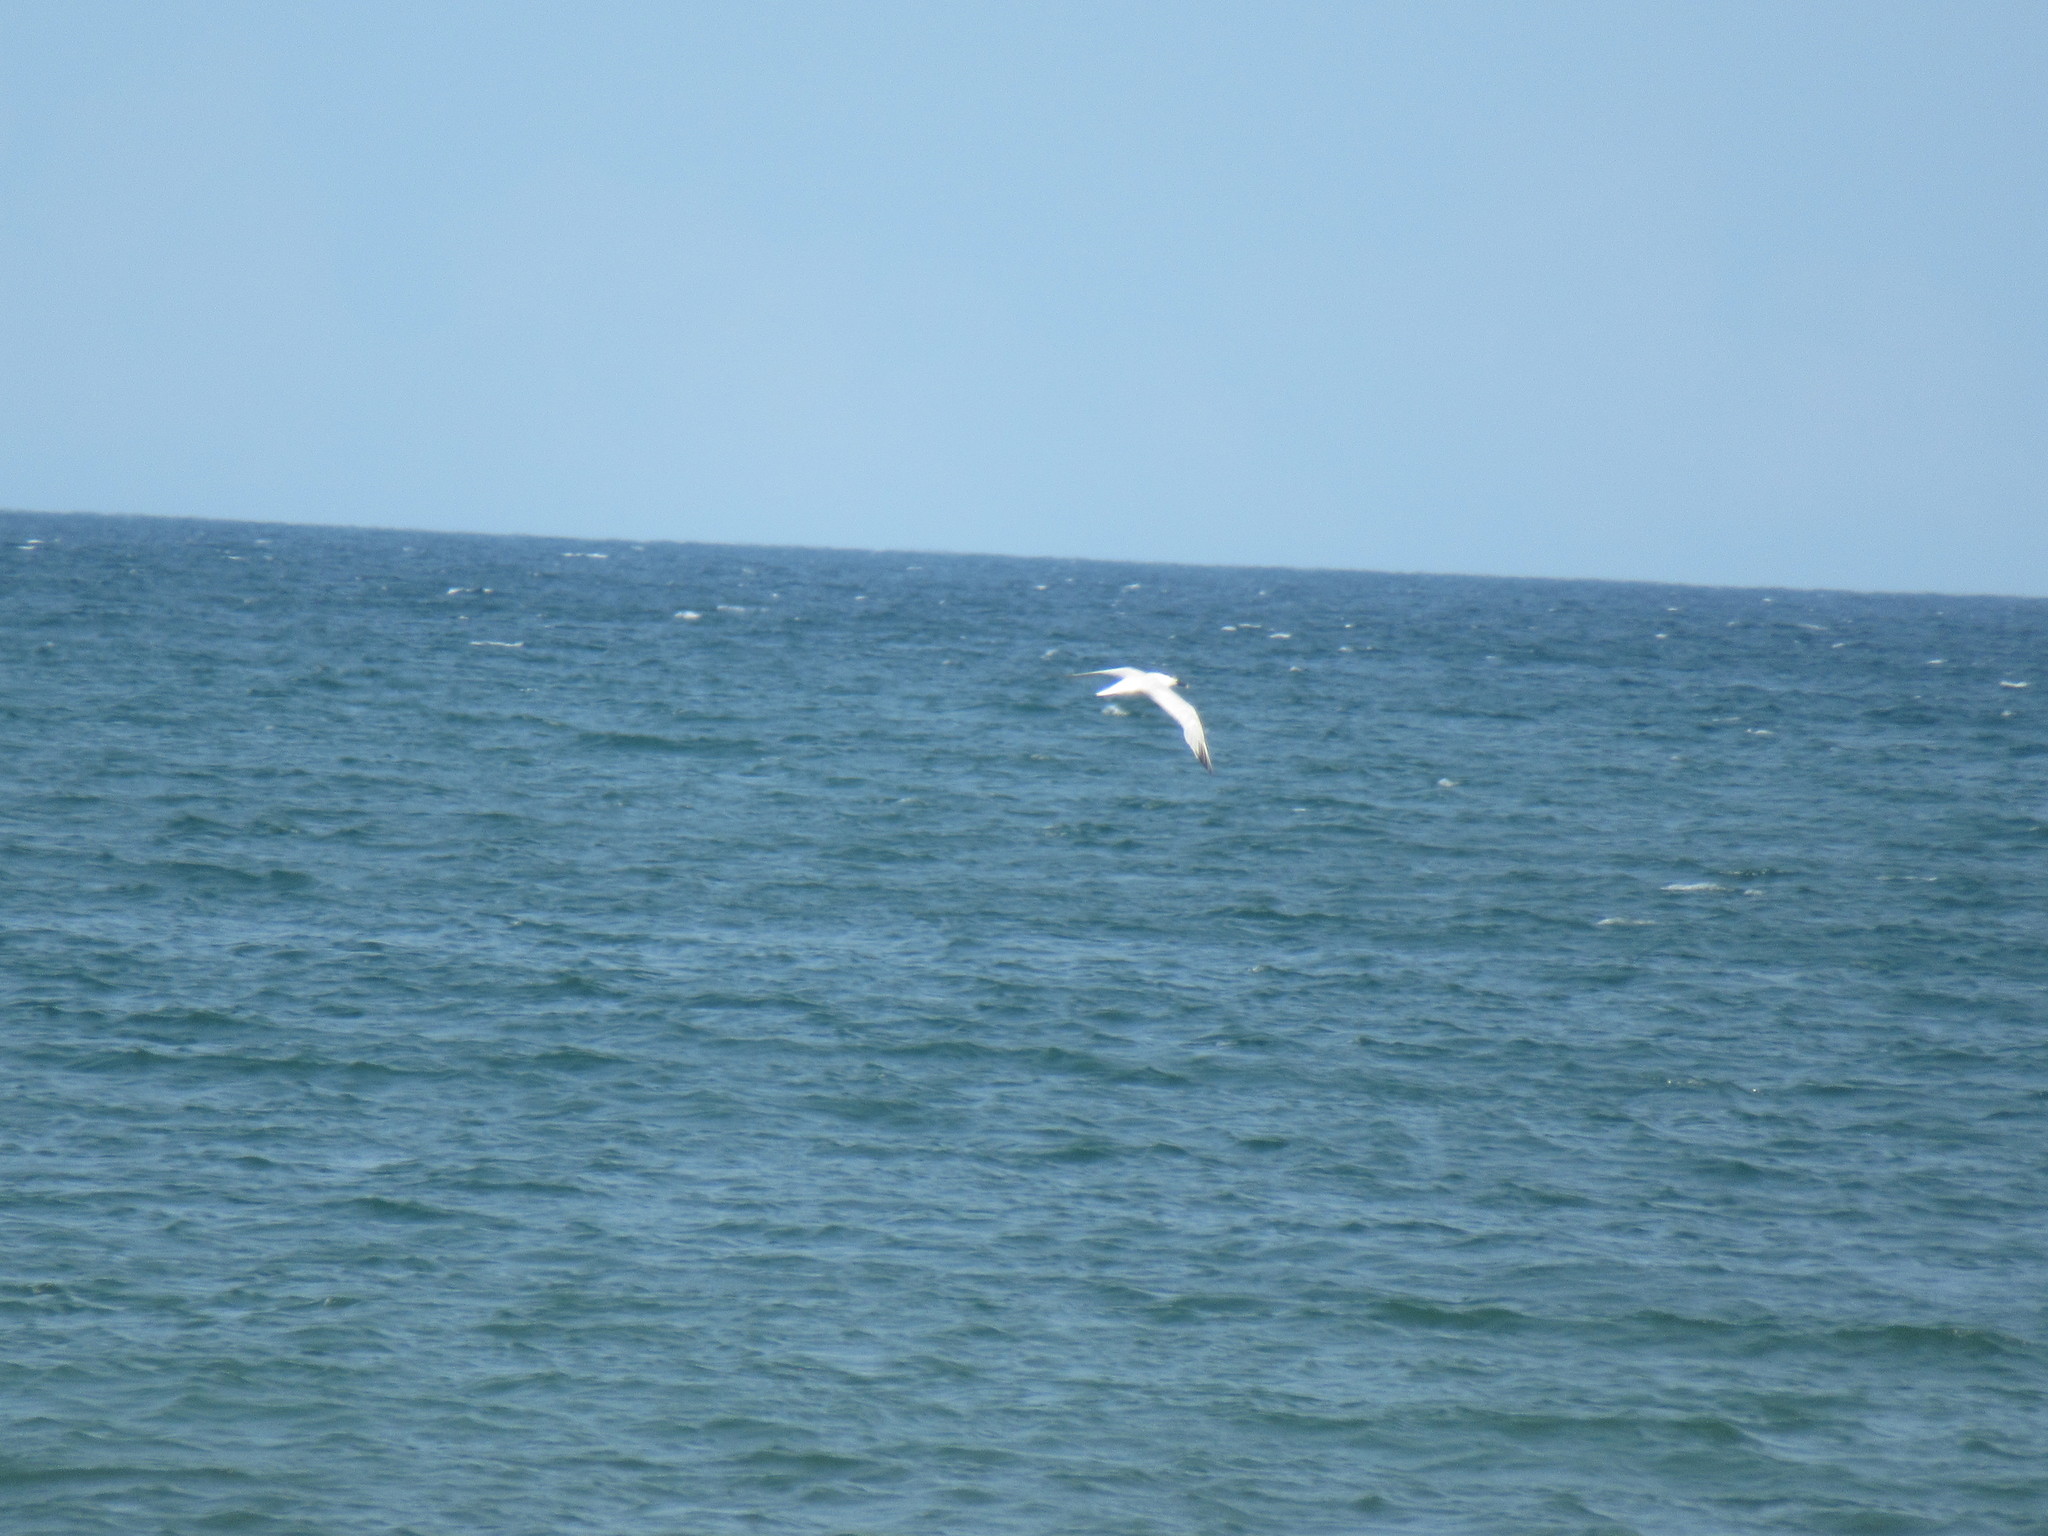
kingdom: Animalia
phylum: Chordata
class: Aves
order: Charadriiformes
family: Laridae
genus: Thalasseus
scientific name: Thalasseus sandvicensis
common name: Sandwich tern
